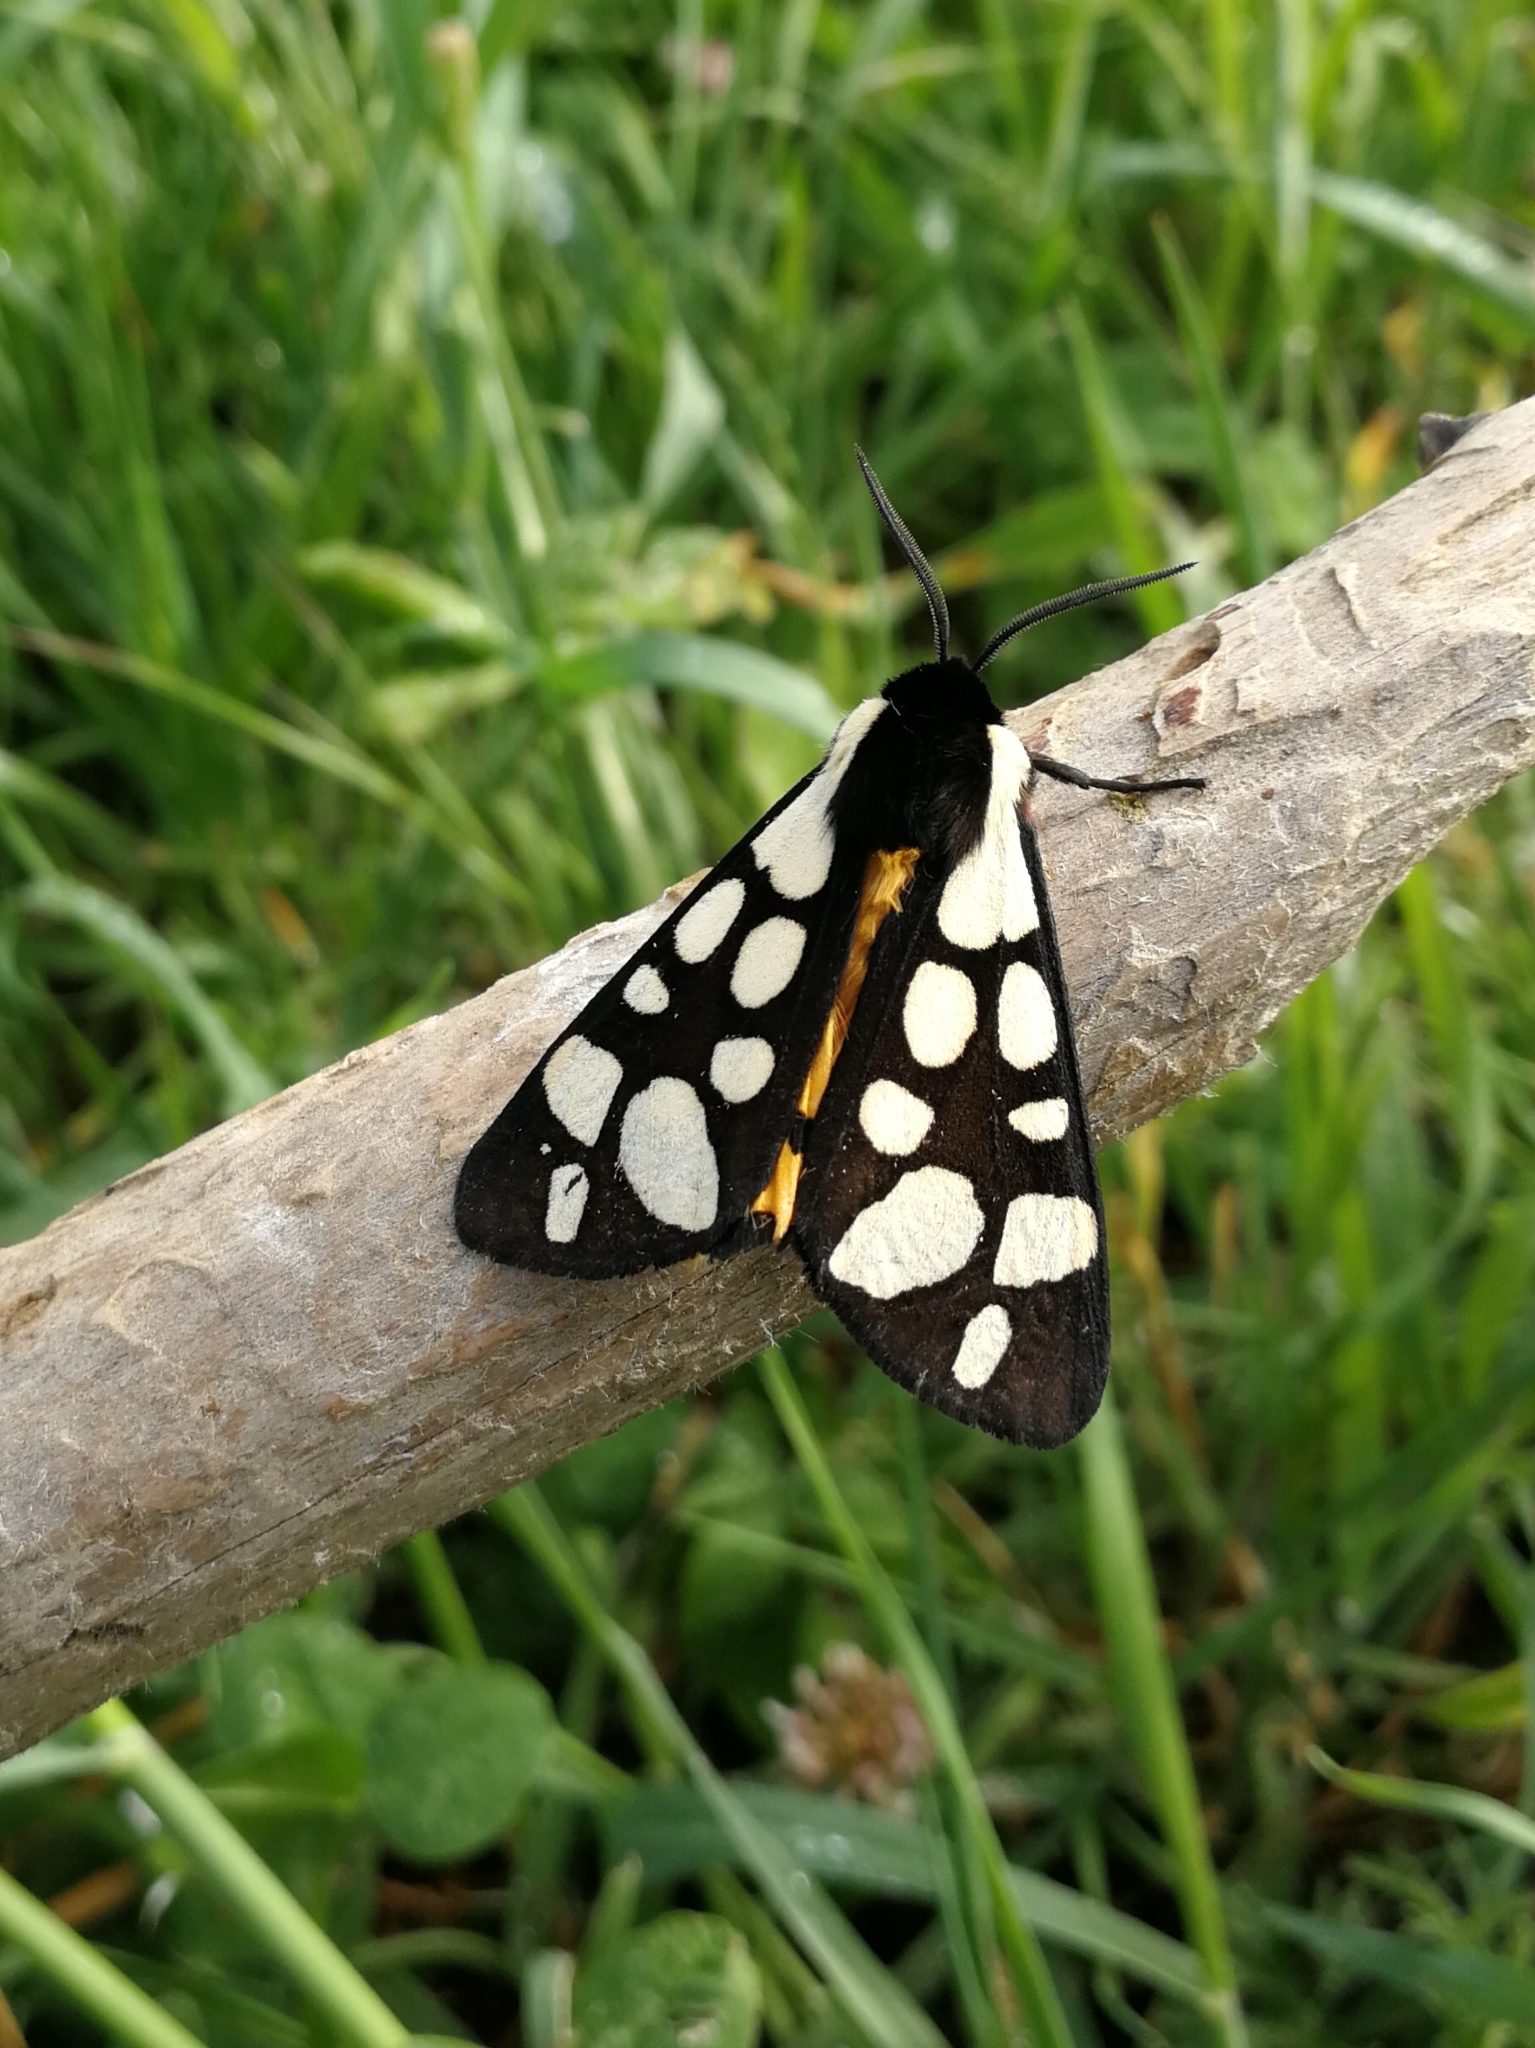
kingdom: Animalia
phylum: Arthropoda
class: Insecta
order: Lepidoptera
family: Erebidae
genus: Epicallia
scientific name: Epicallia villica
